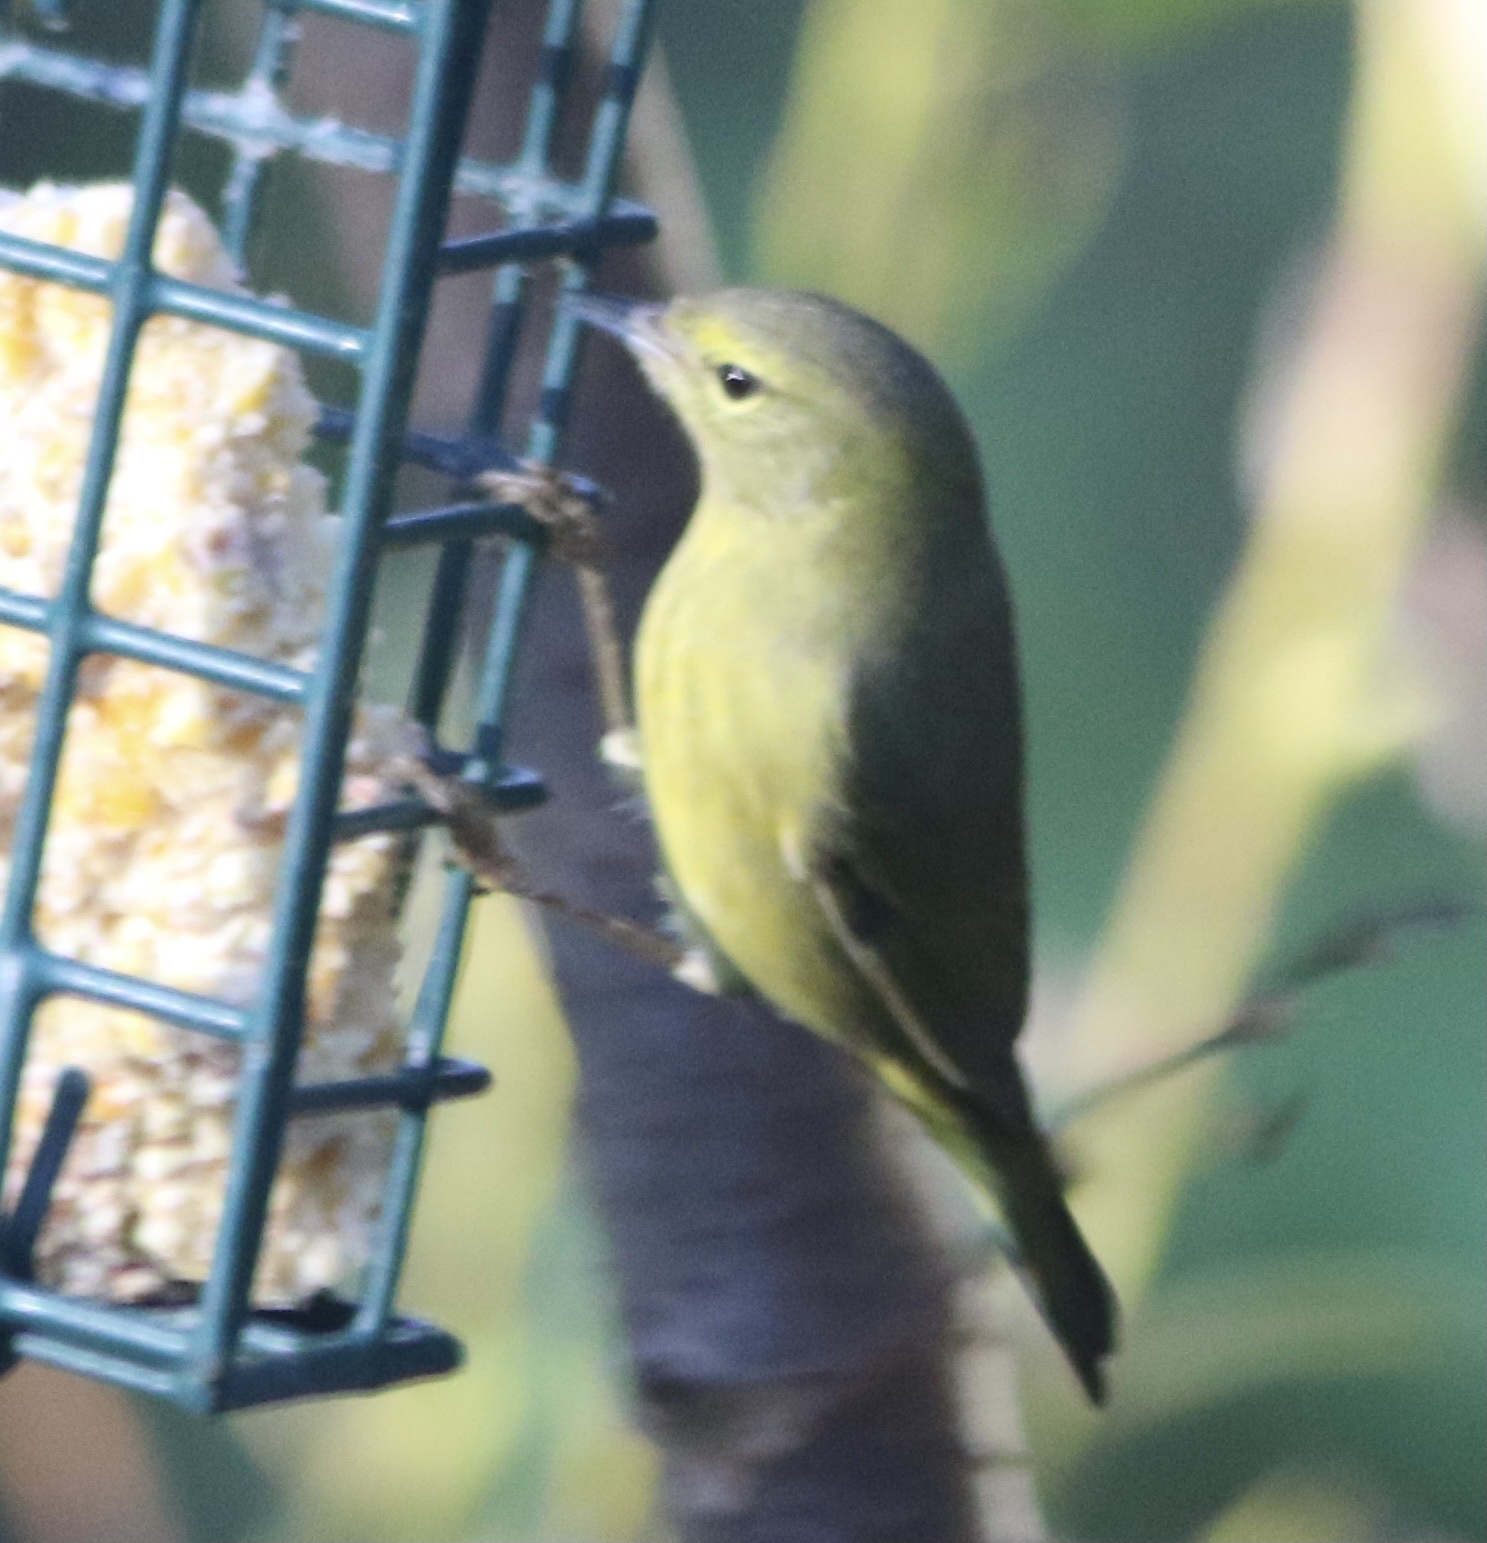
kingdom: Animalia
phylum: Chordata
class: Aves
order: Passeriformes
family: Parulidae
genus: Leiothlypis
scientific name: Leiothlypis celata
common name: Orange-crowned warbler
